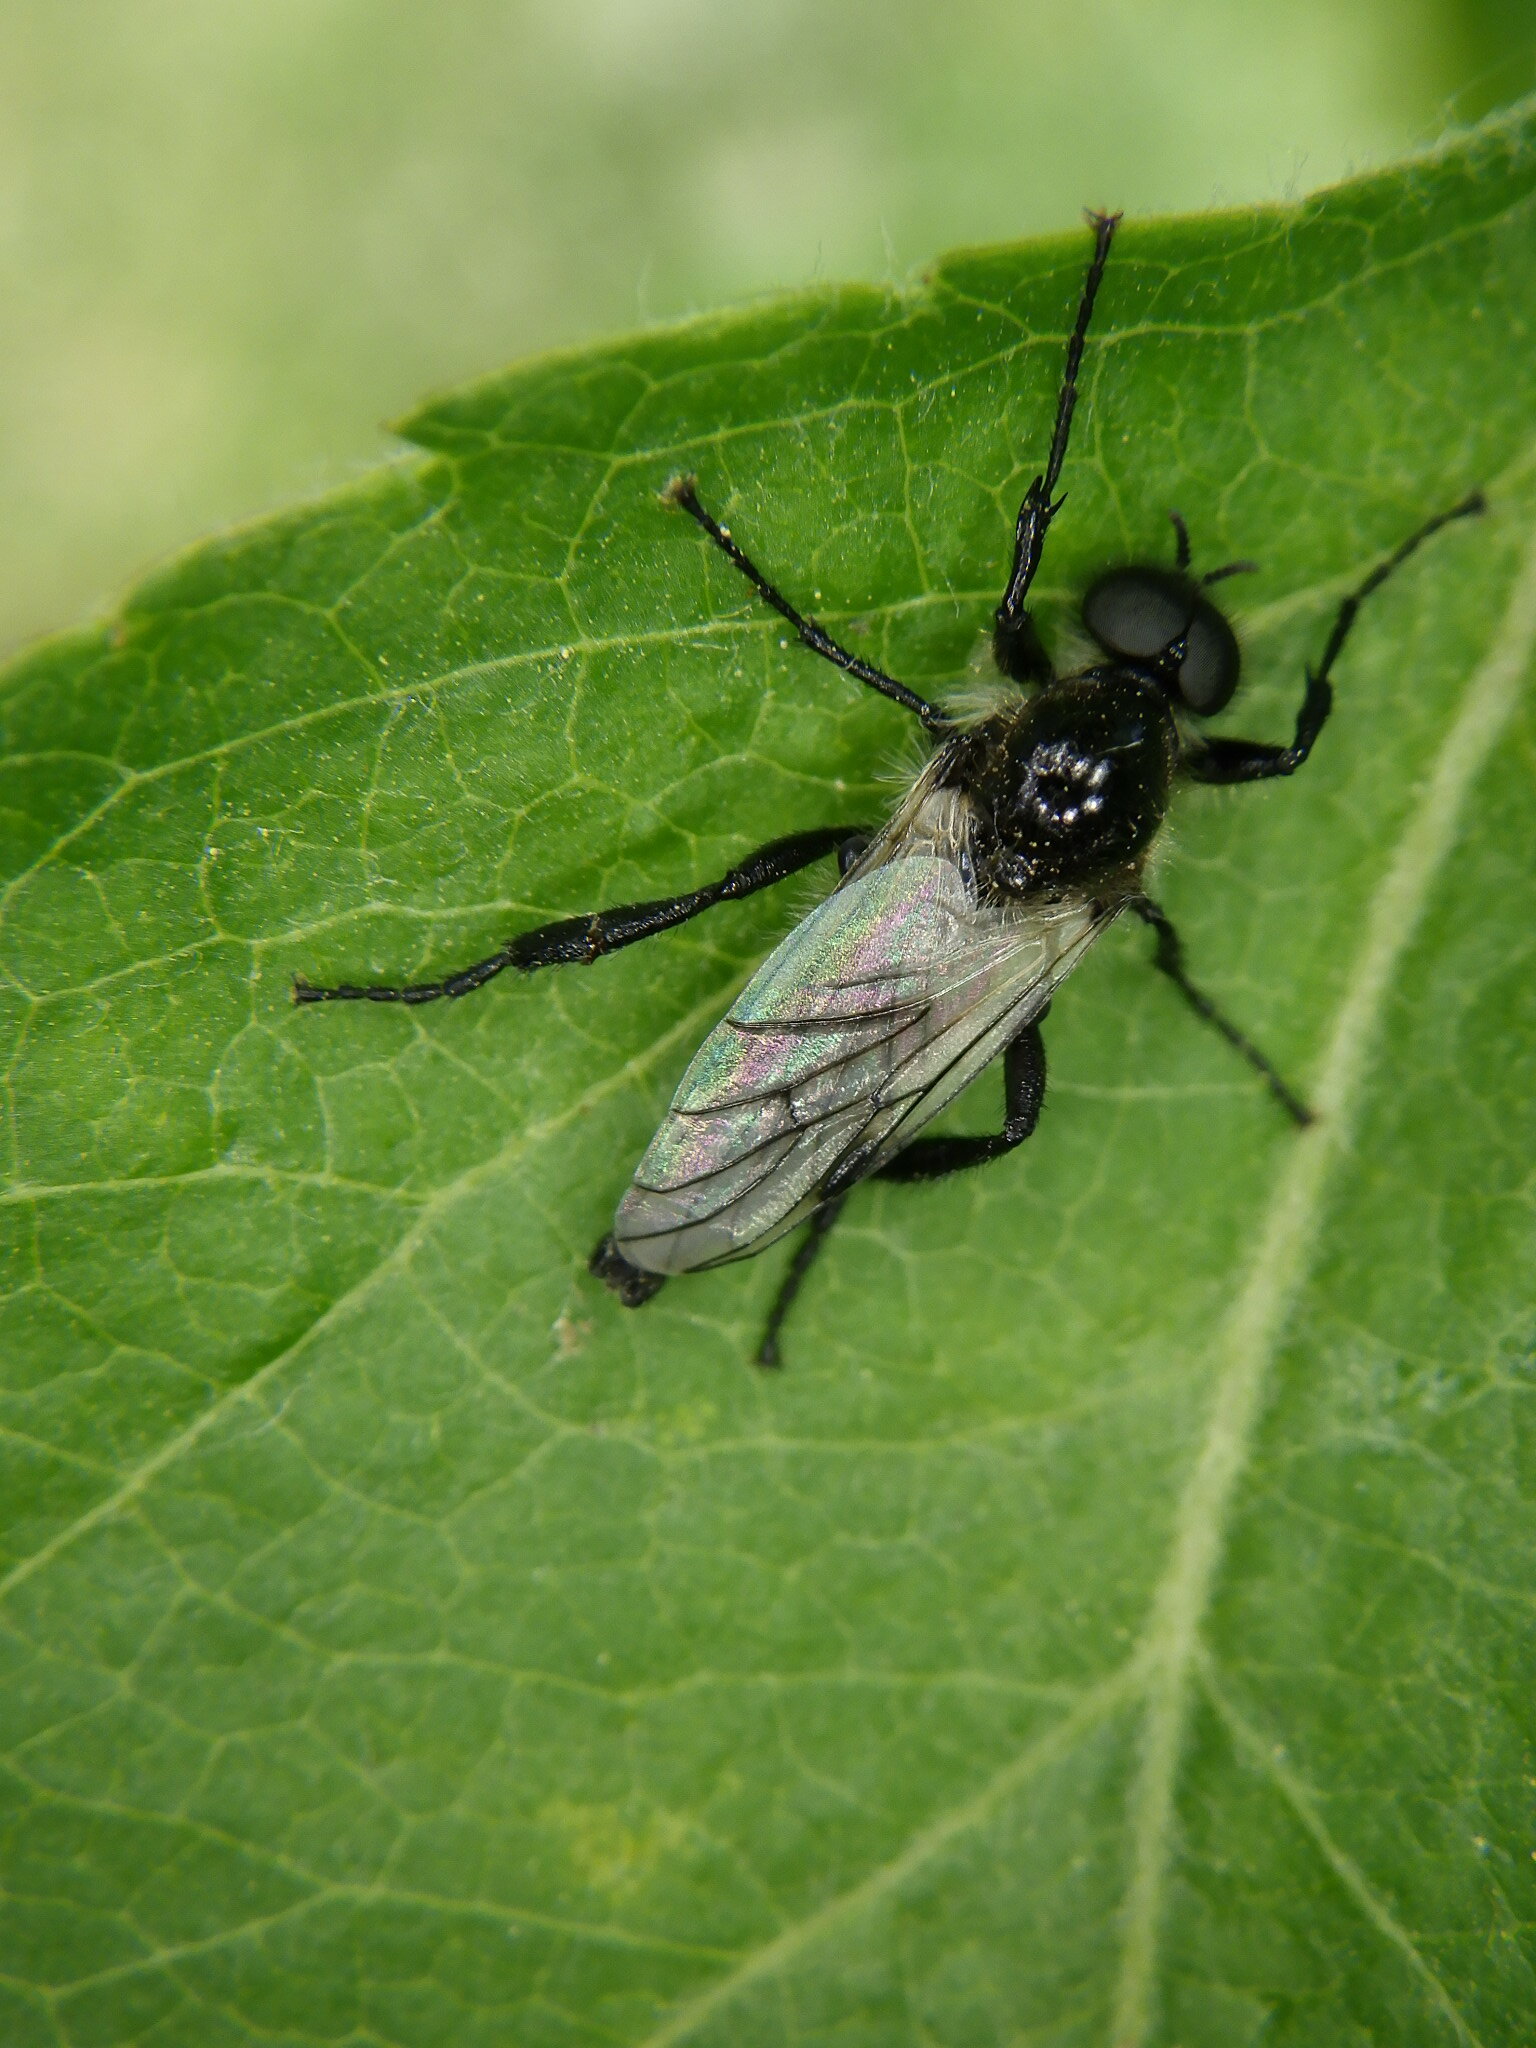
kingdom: Animalia
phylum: Arthropoda
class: Insecta
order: Diptera
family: Bibionidae
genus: Bibio
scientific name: Bibio albipennis
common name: White-winged march fly
